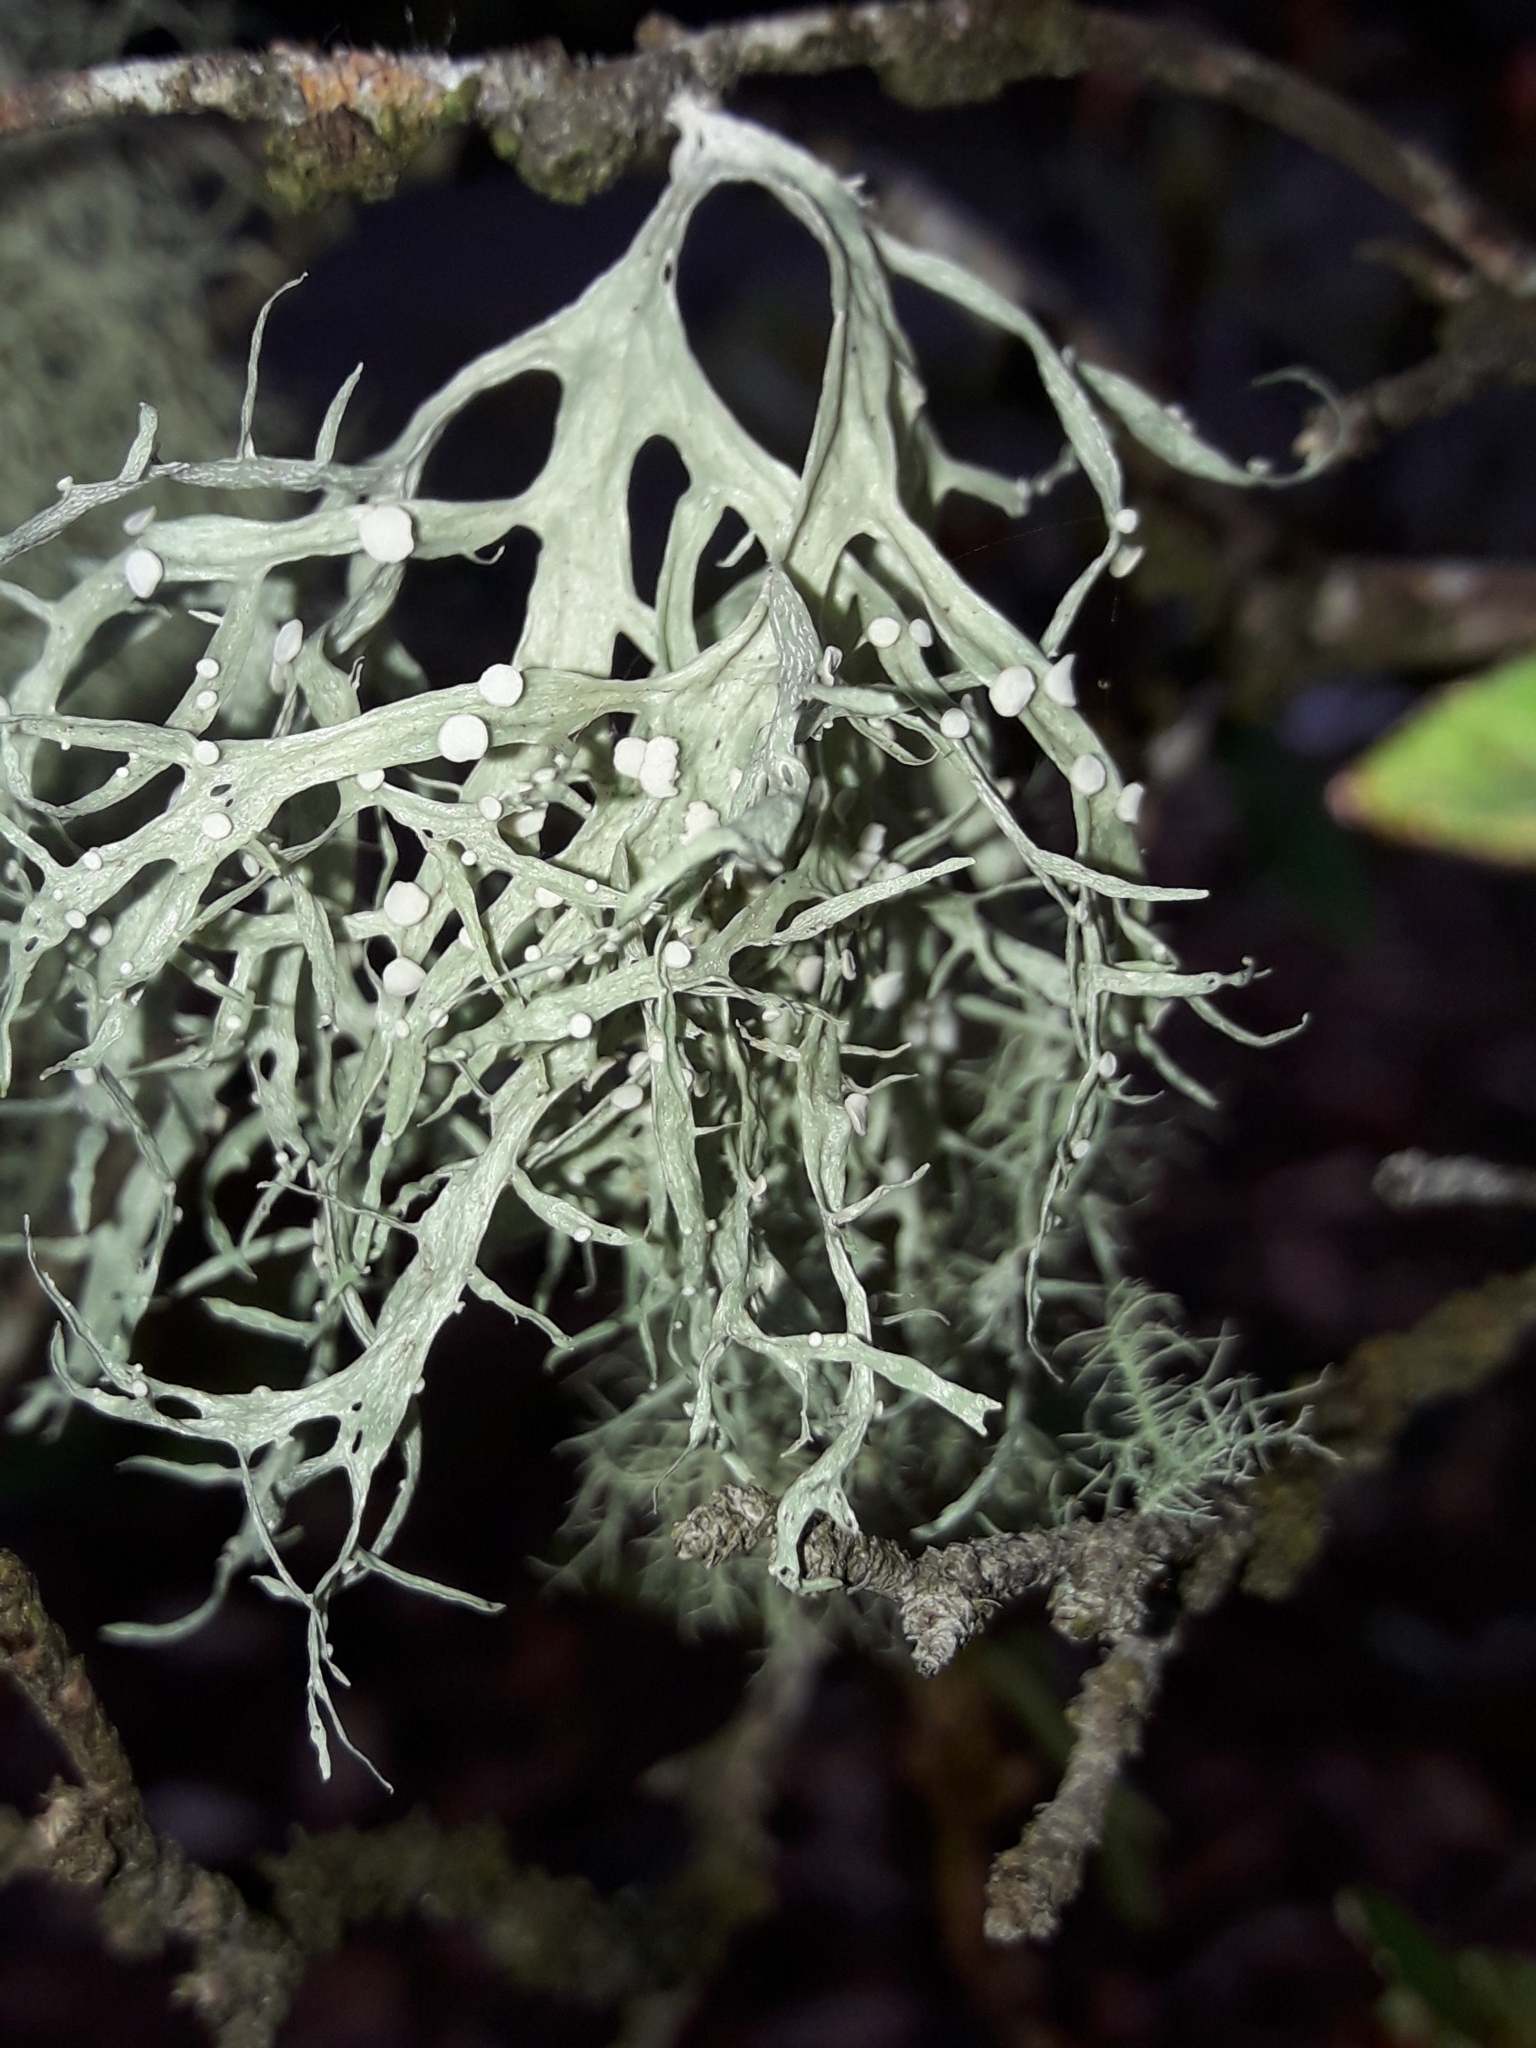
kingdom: Fungi
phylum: Ascomycota
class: Lecanoromycetes
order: Lecanorales
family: Ramalinaceae
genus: Ramalina
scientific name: Ramalina celastri
